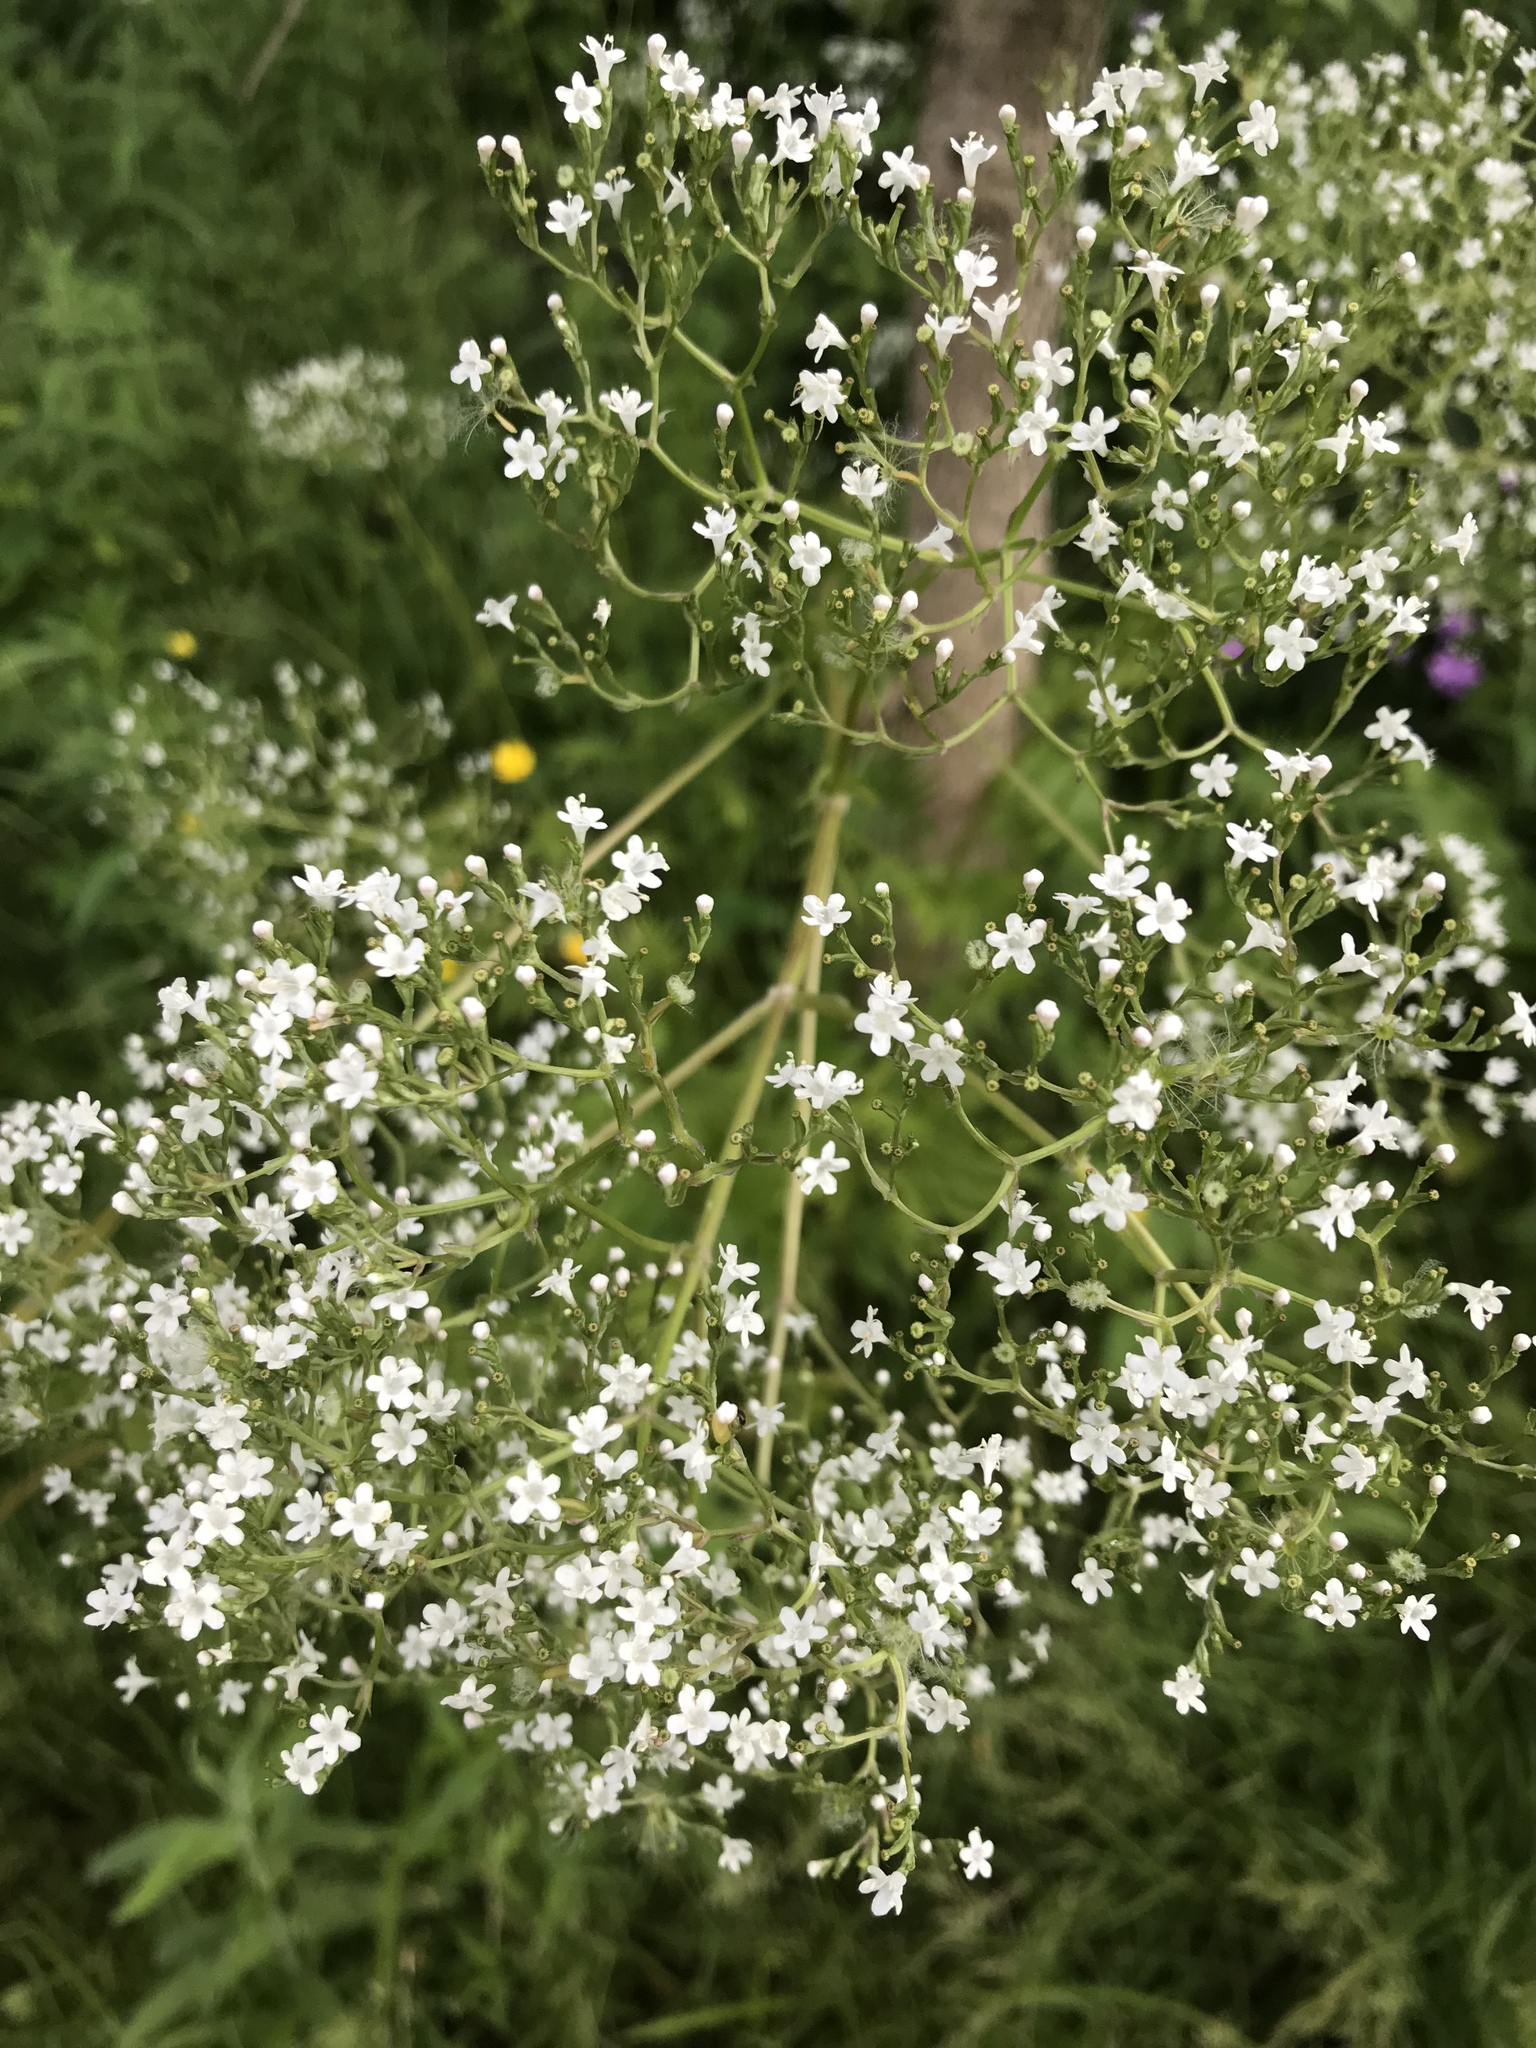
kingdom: Plantae
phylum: Tracheophyta
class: Magnoliopsida
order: Dipsacales
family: Caprifoliaceae
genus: Valeriana
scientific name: Valeriana officinalis
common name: Common valerian
